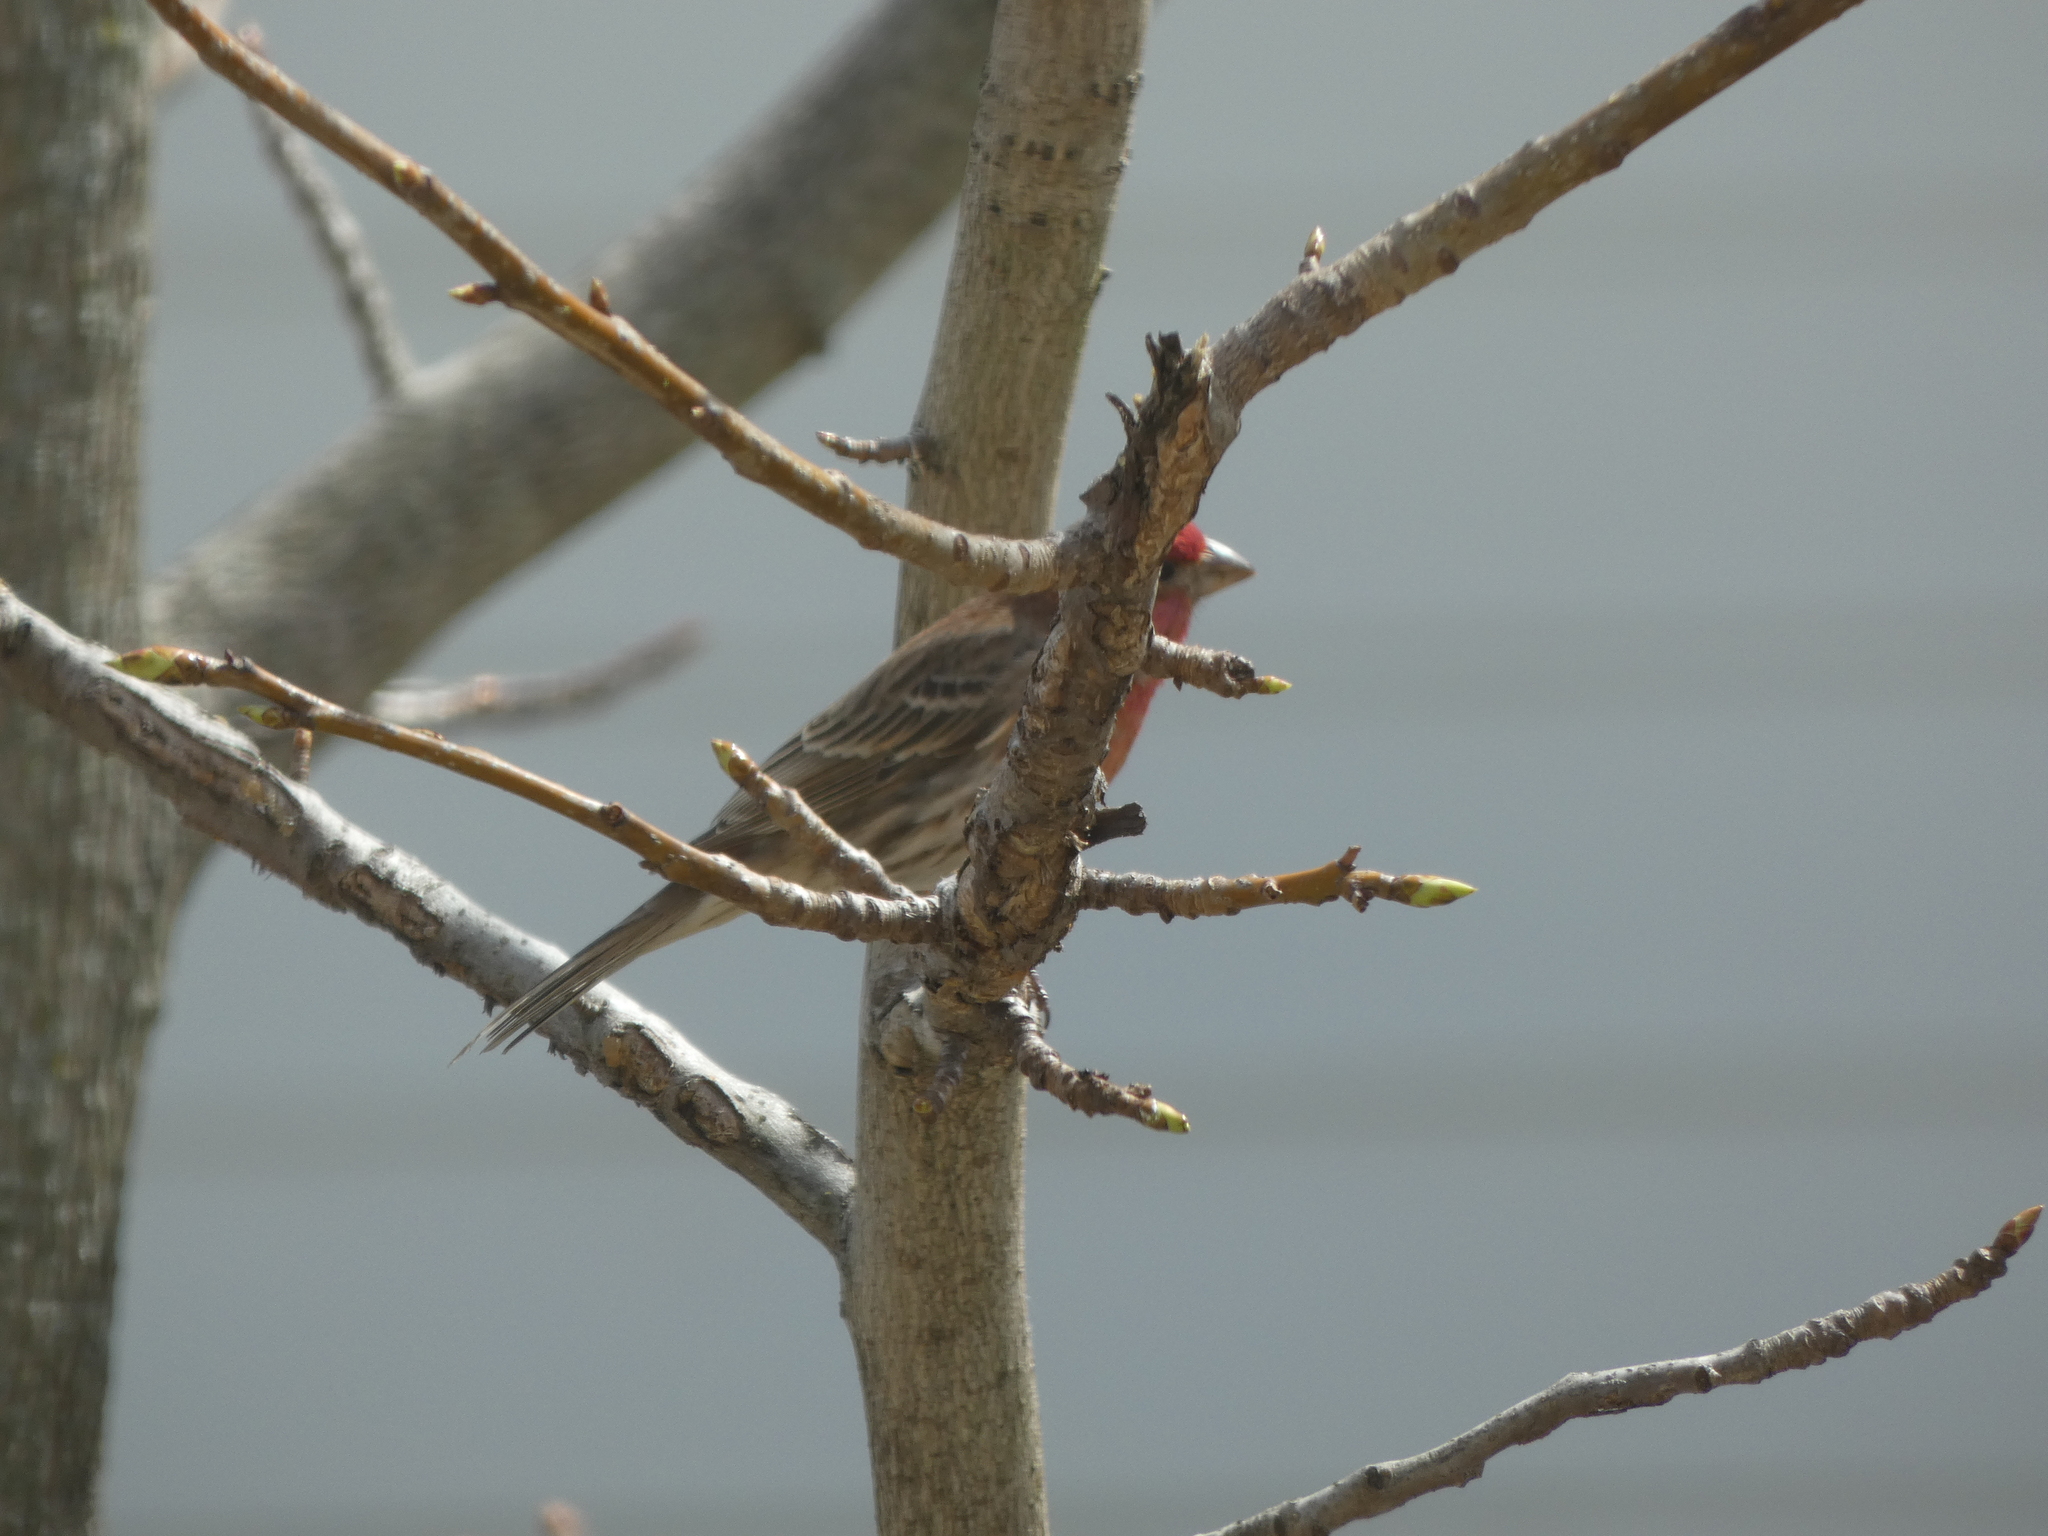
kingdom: Animalia
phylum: Chordata
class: Aves
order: Passeriformes
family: Fringillidae
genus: Haemorhous
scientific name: Haemorhous mexicanus
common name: House finch
